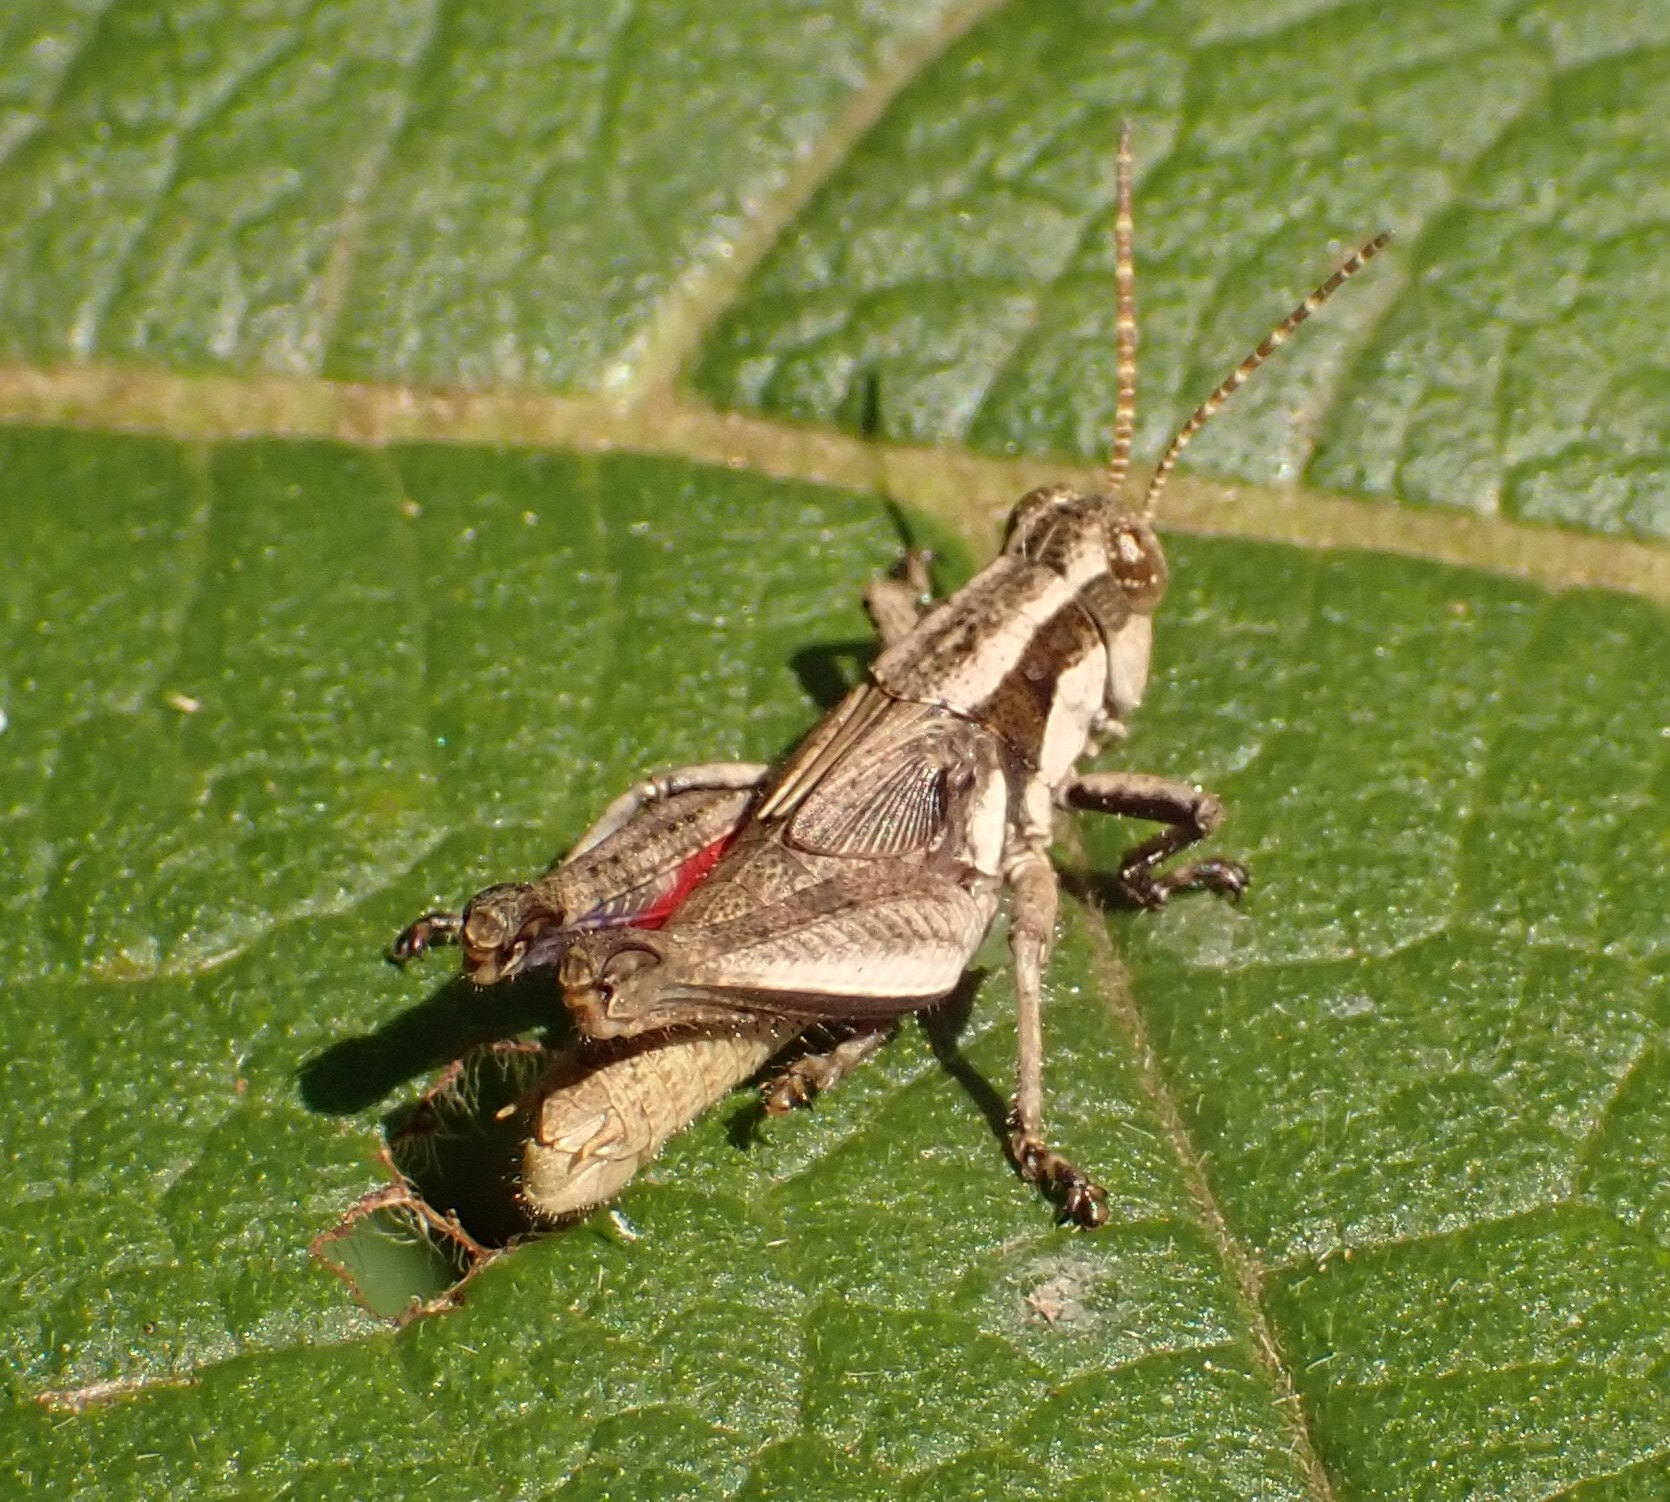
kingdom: Animalia
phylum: Arthropoda
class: Insecta
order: Orthoptera
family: Acrididae
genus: Ronderosia
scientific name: Ronderosia bergii
